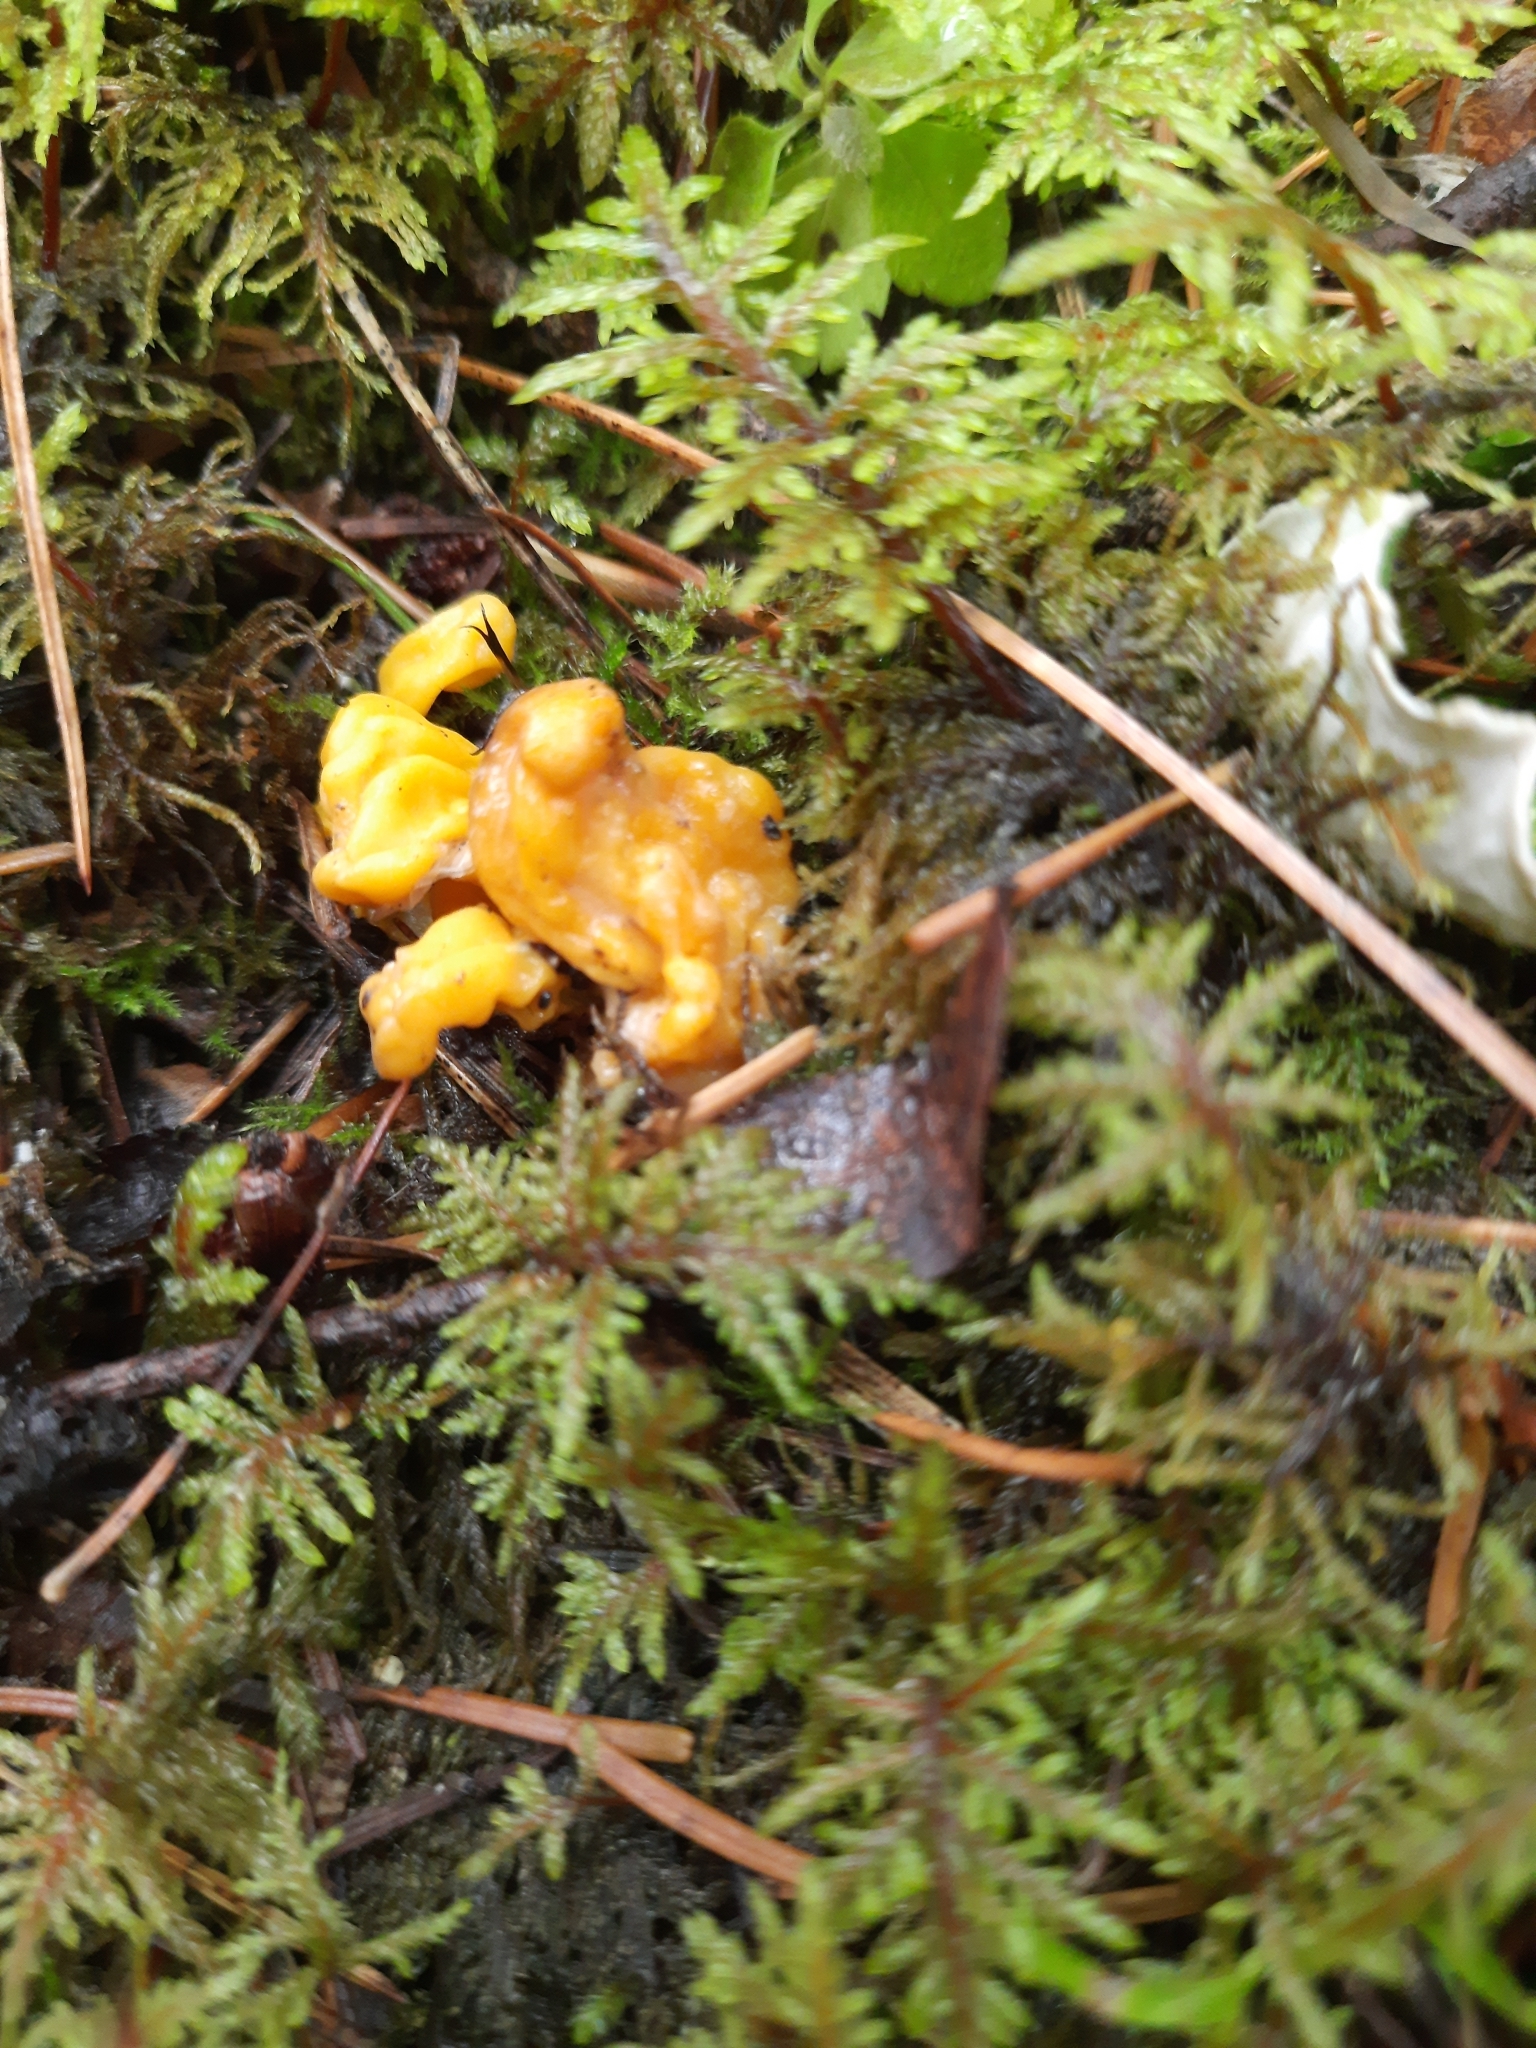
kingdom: Fungi
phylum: Ascomycota
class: Neolectomycetes
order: Neolectales
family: Neolectaceae
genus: Neolecta
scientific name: Neolecta vitellina
